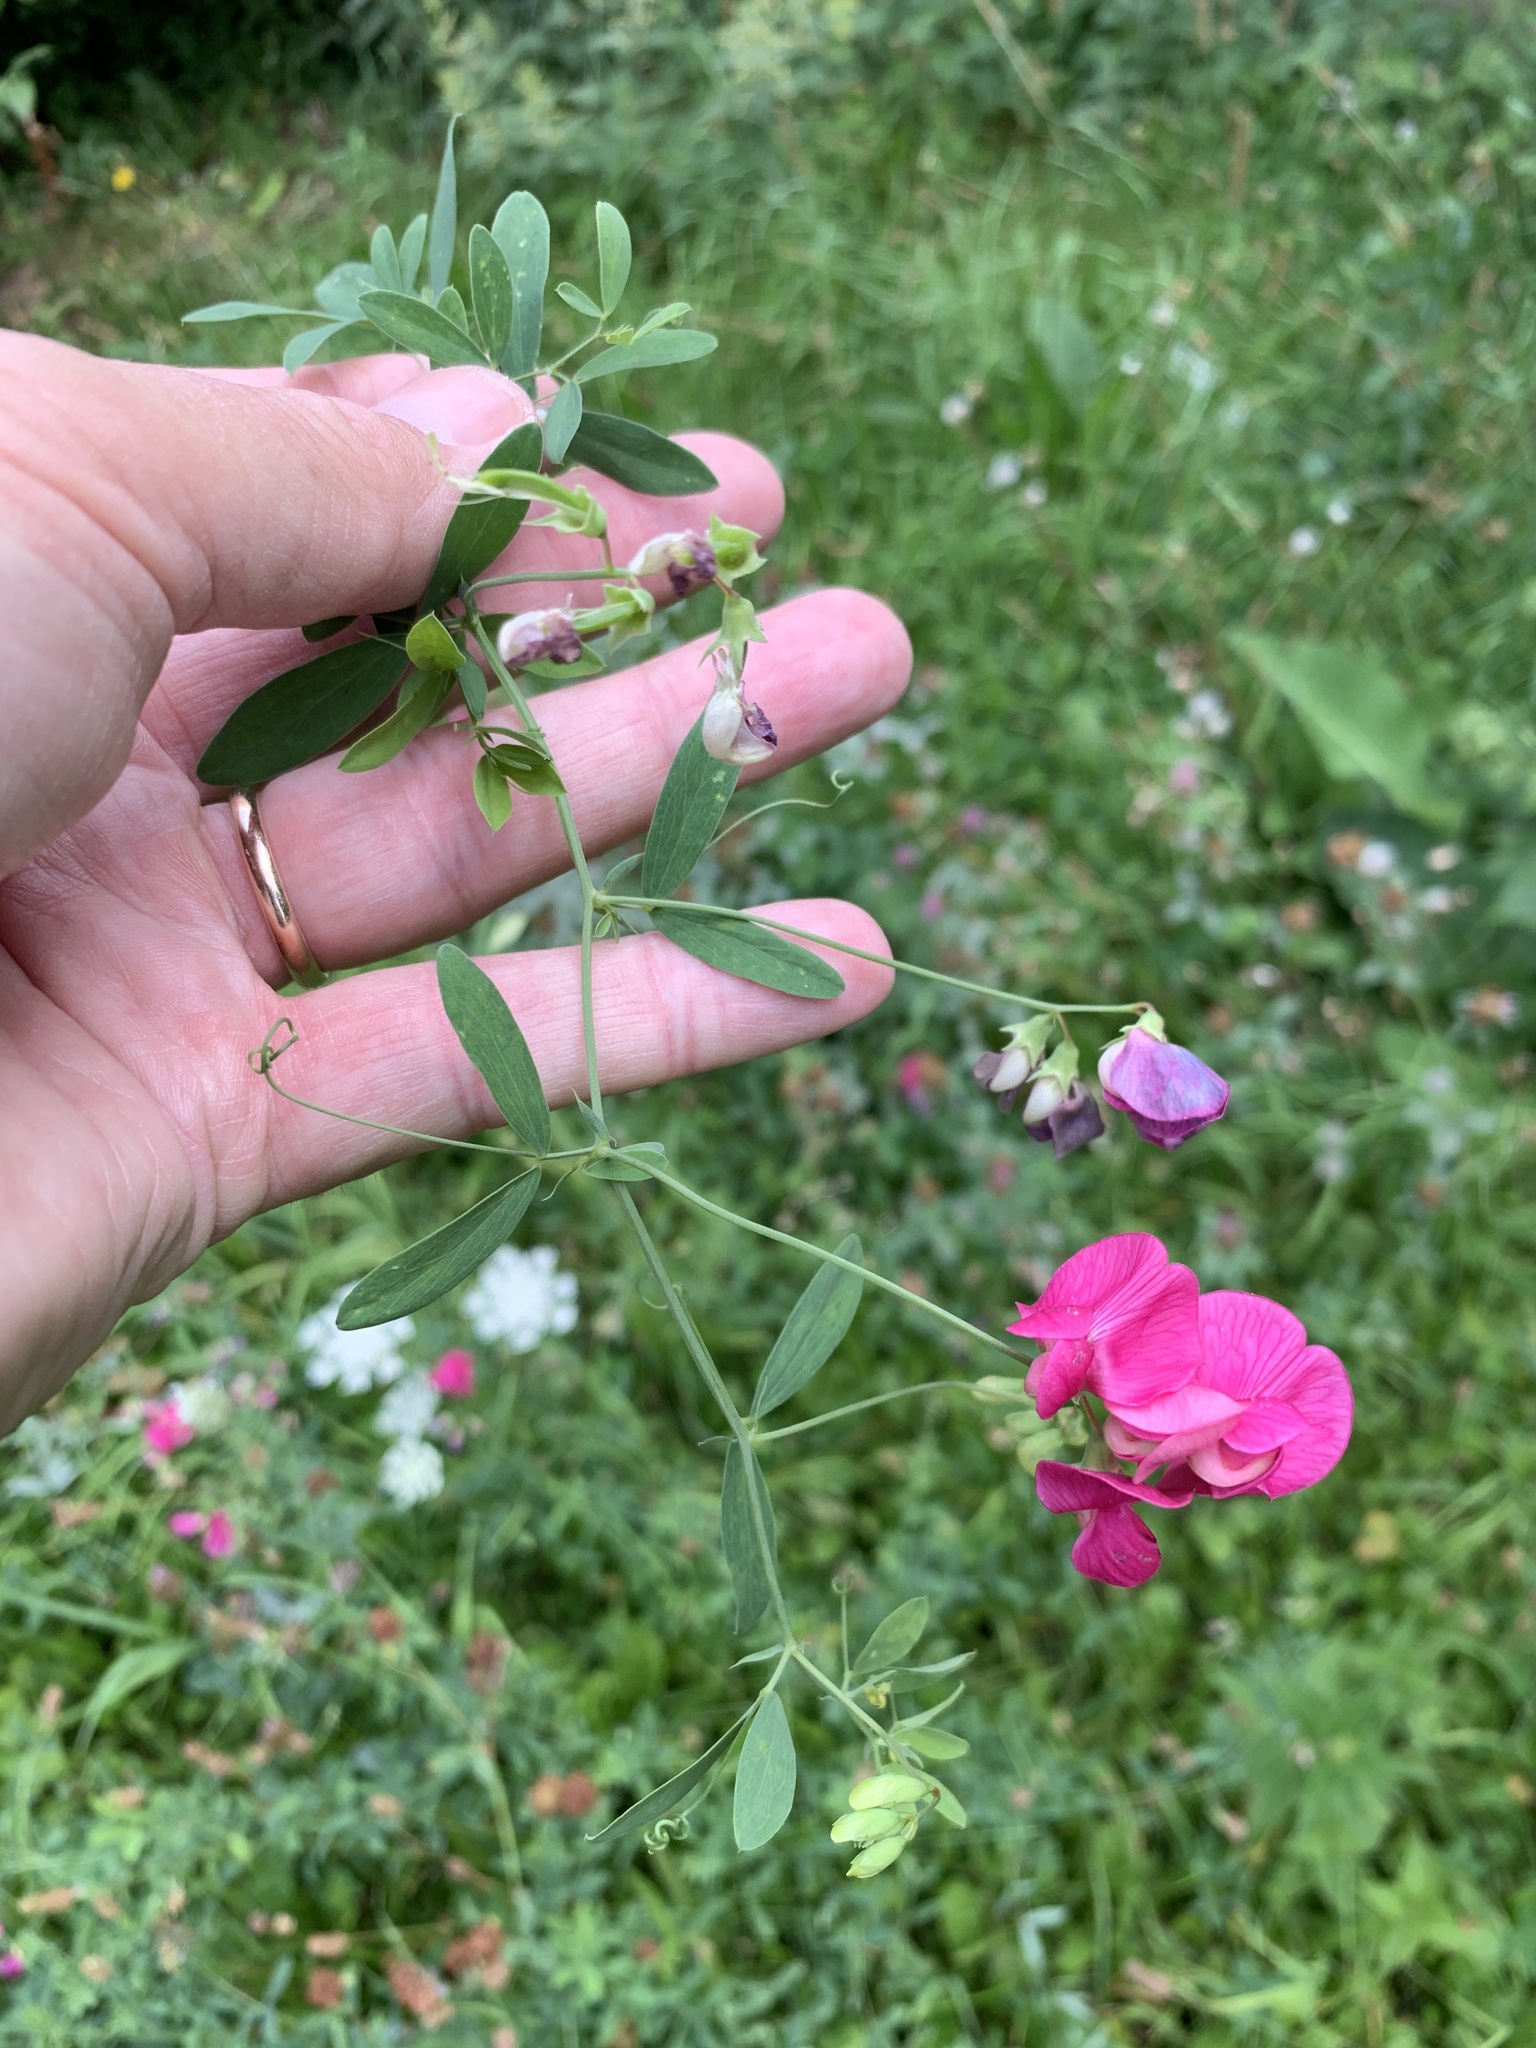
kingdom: Plantae
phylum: Tracheophyta
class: Magnoliopsida
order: Fabales
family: Fabaceae
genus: Lathyrus
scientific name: Lathyrus tuberosus
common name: Tuberous pea
